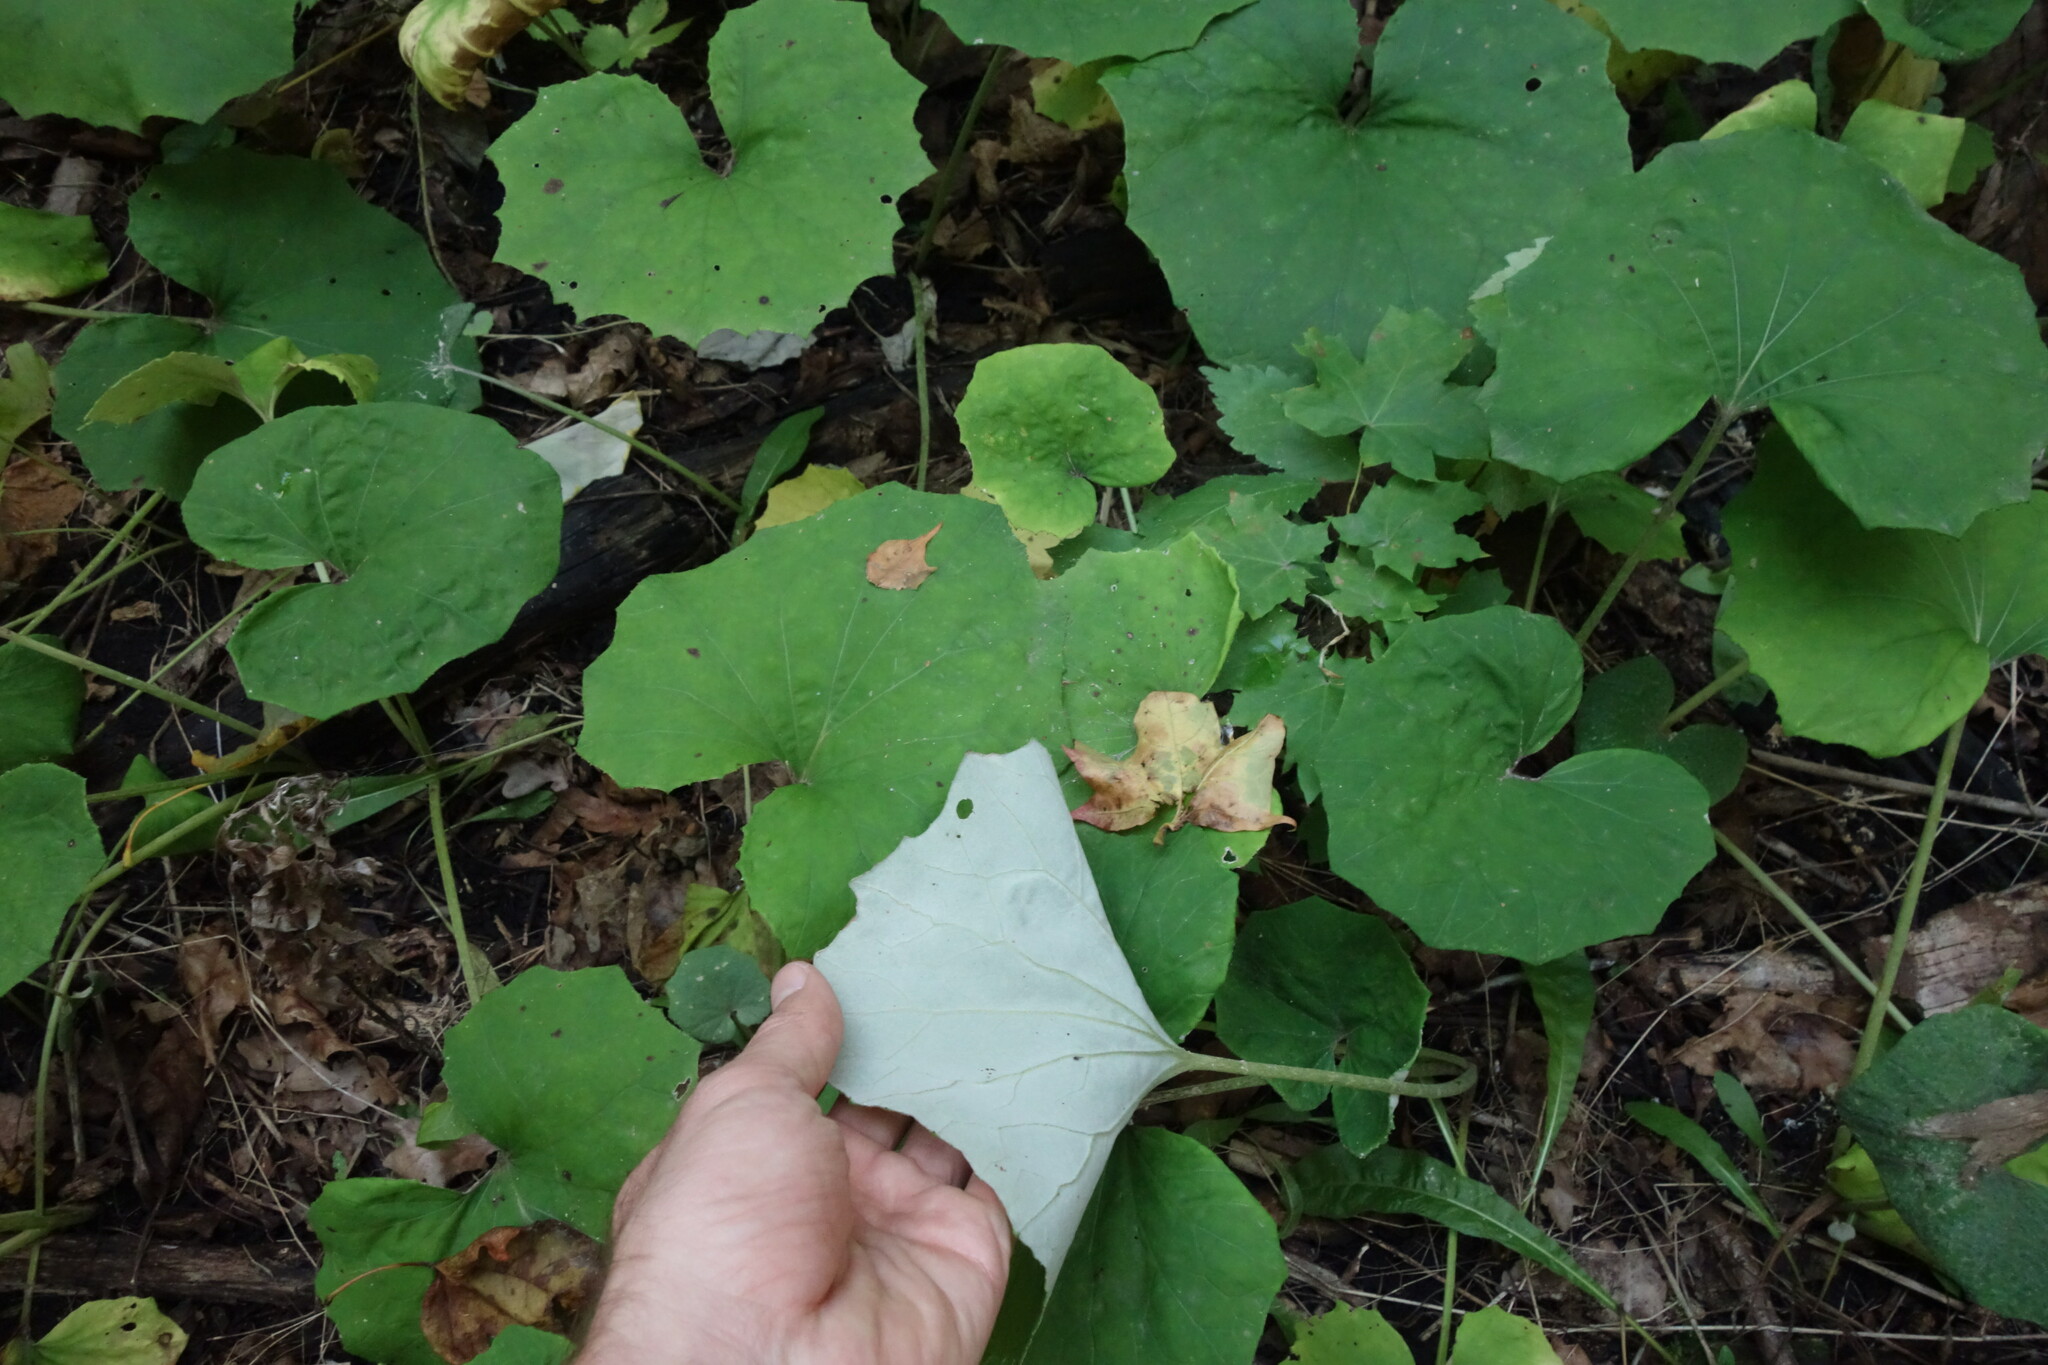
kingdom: Plantae
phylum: Tracheophyta
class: Magnoliopsida
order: Asterales
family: Asteraceae
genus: Tussilago
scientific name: Tussilago farfara
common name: Coltsfoot
